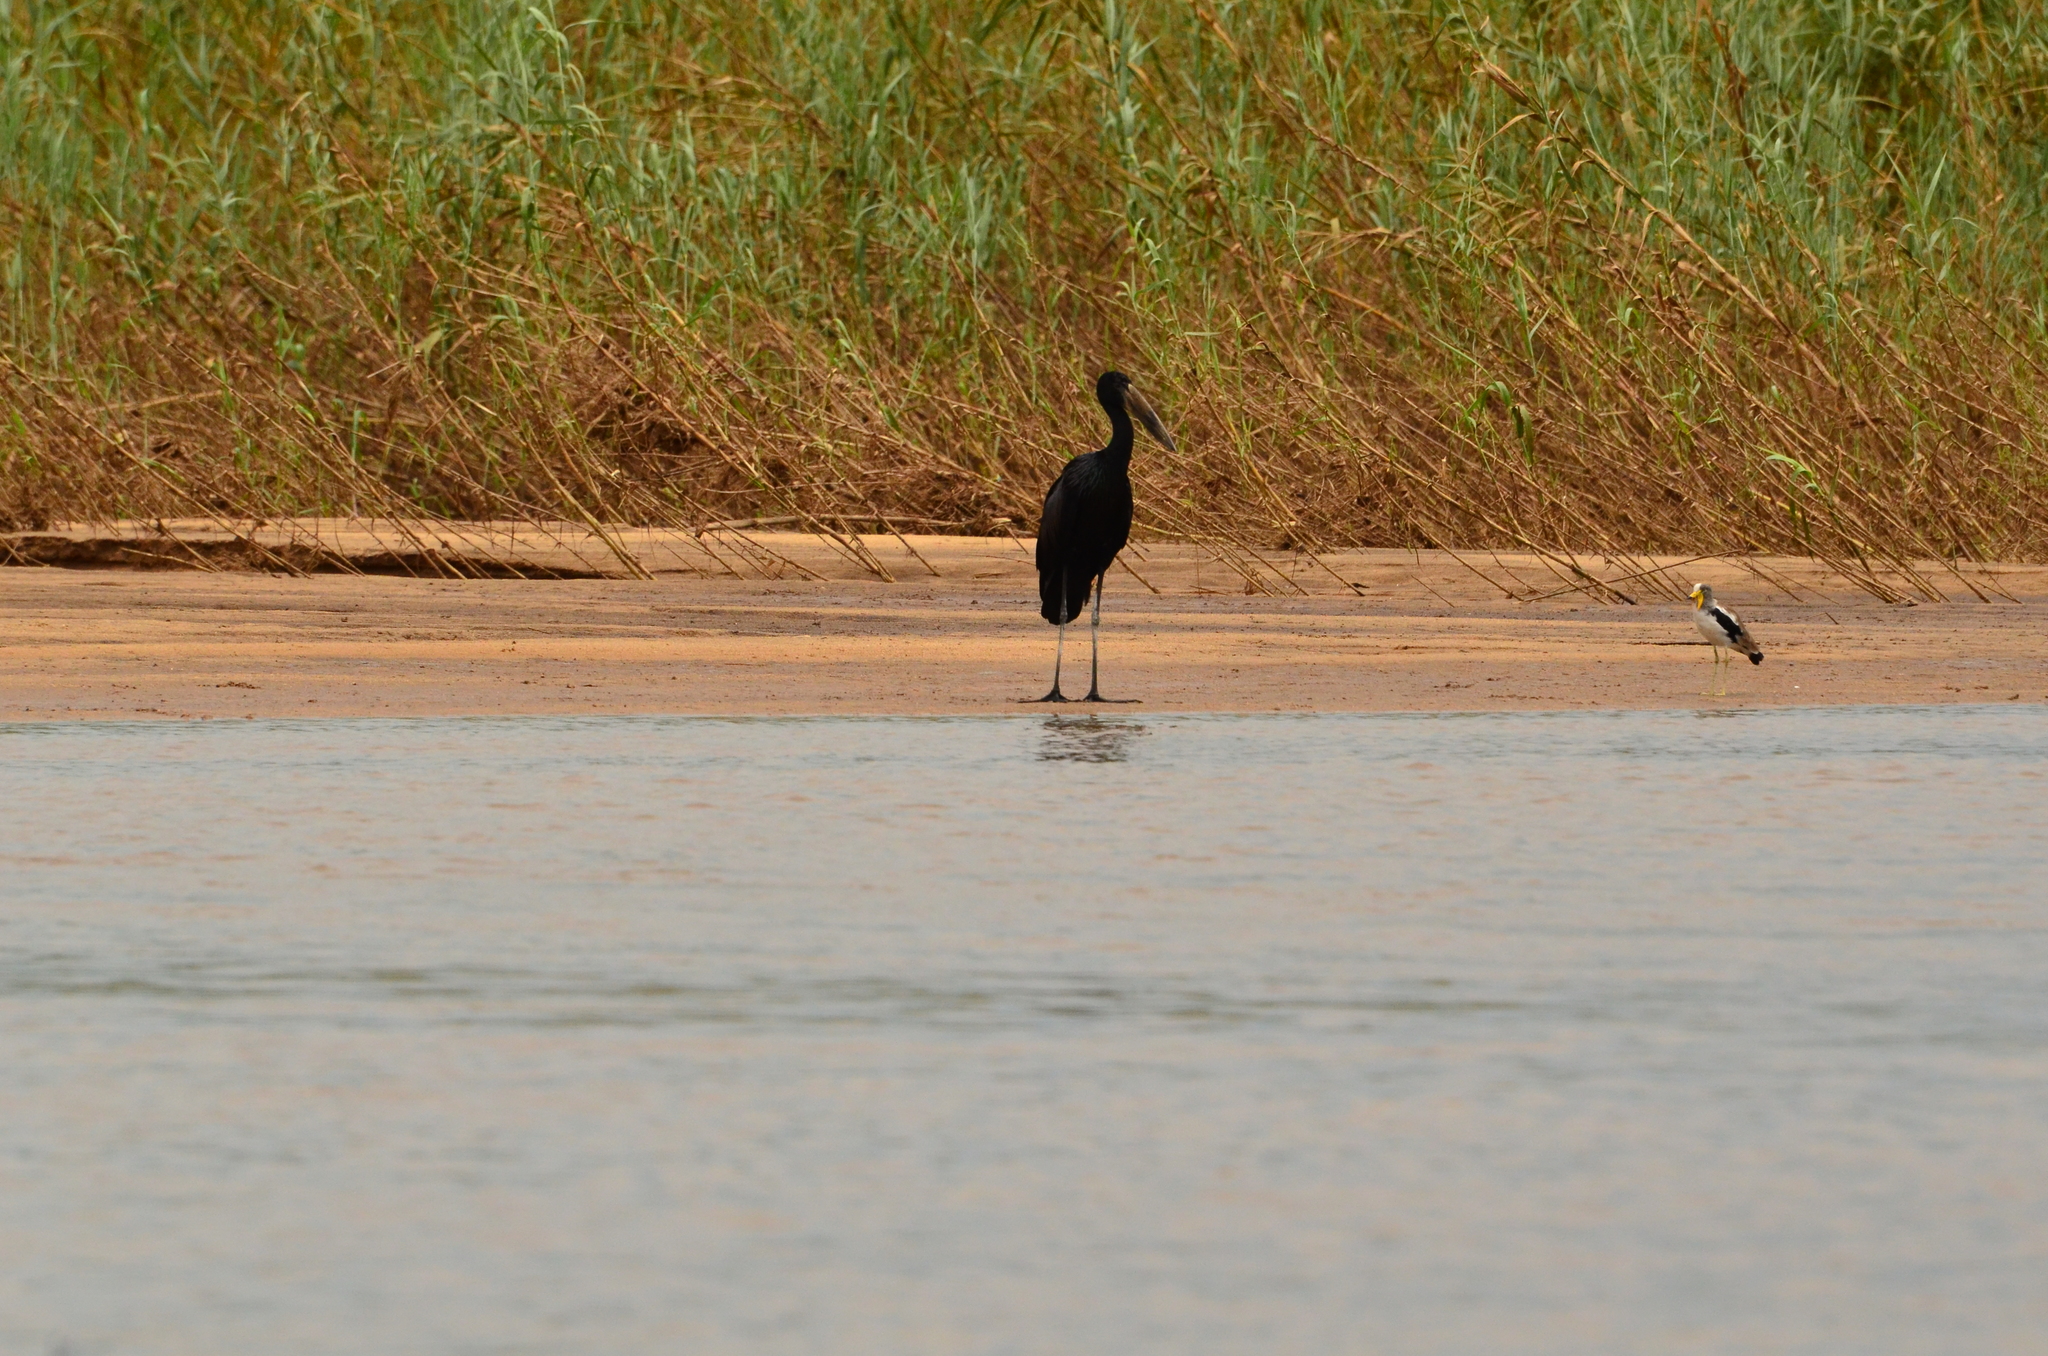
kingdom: Animalia
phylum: Chordata
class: Aves
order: Ciconiiformes
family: Ciconiidae
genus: Anastomus
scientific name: Anastomus lamelligerus
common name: African openbill
